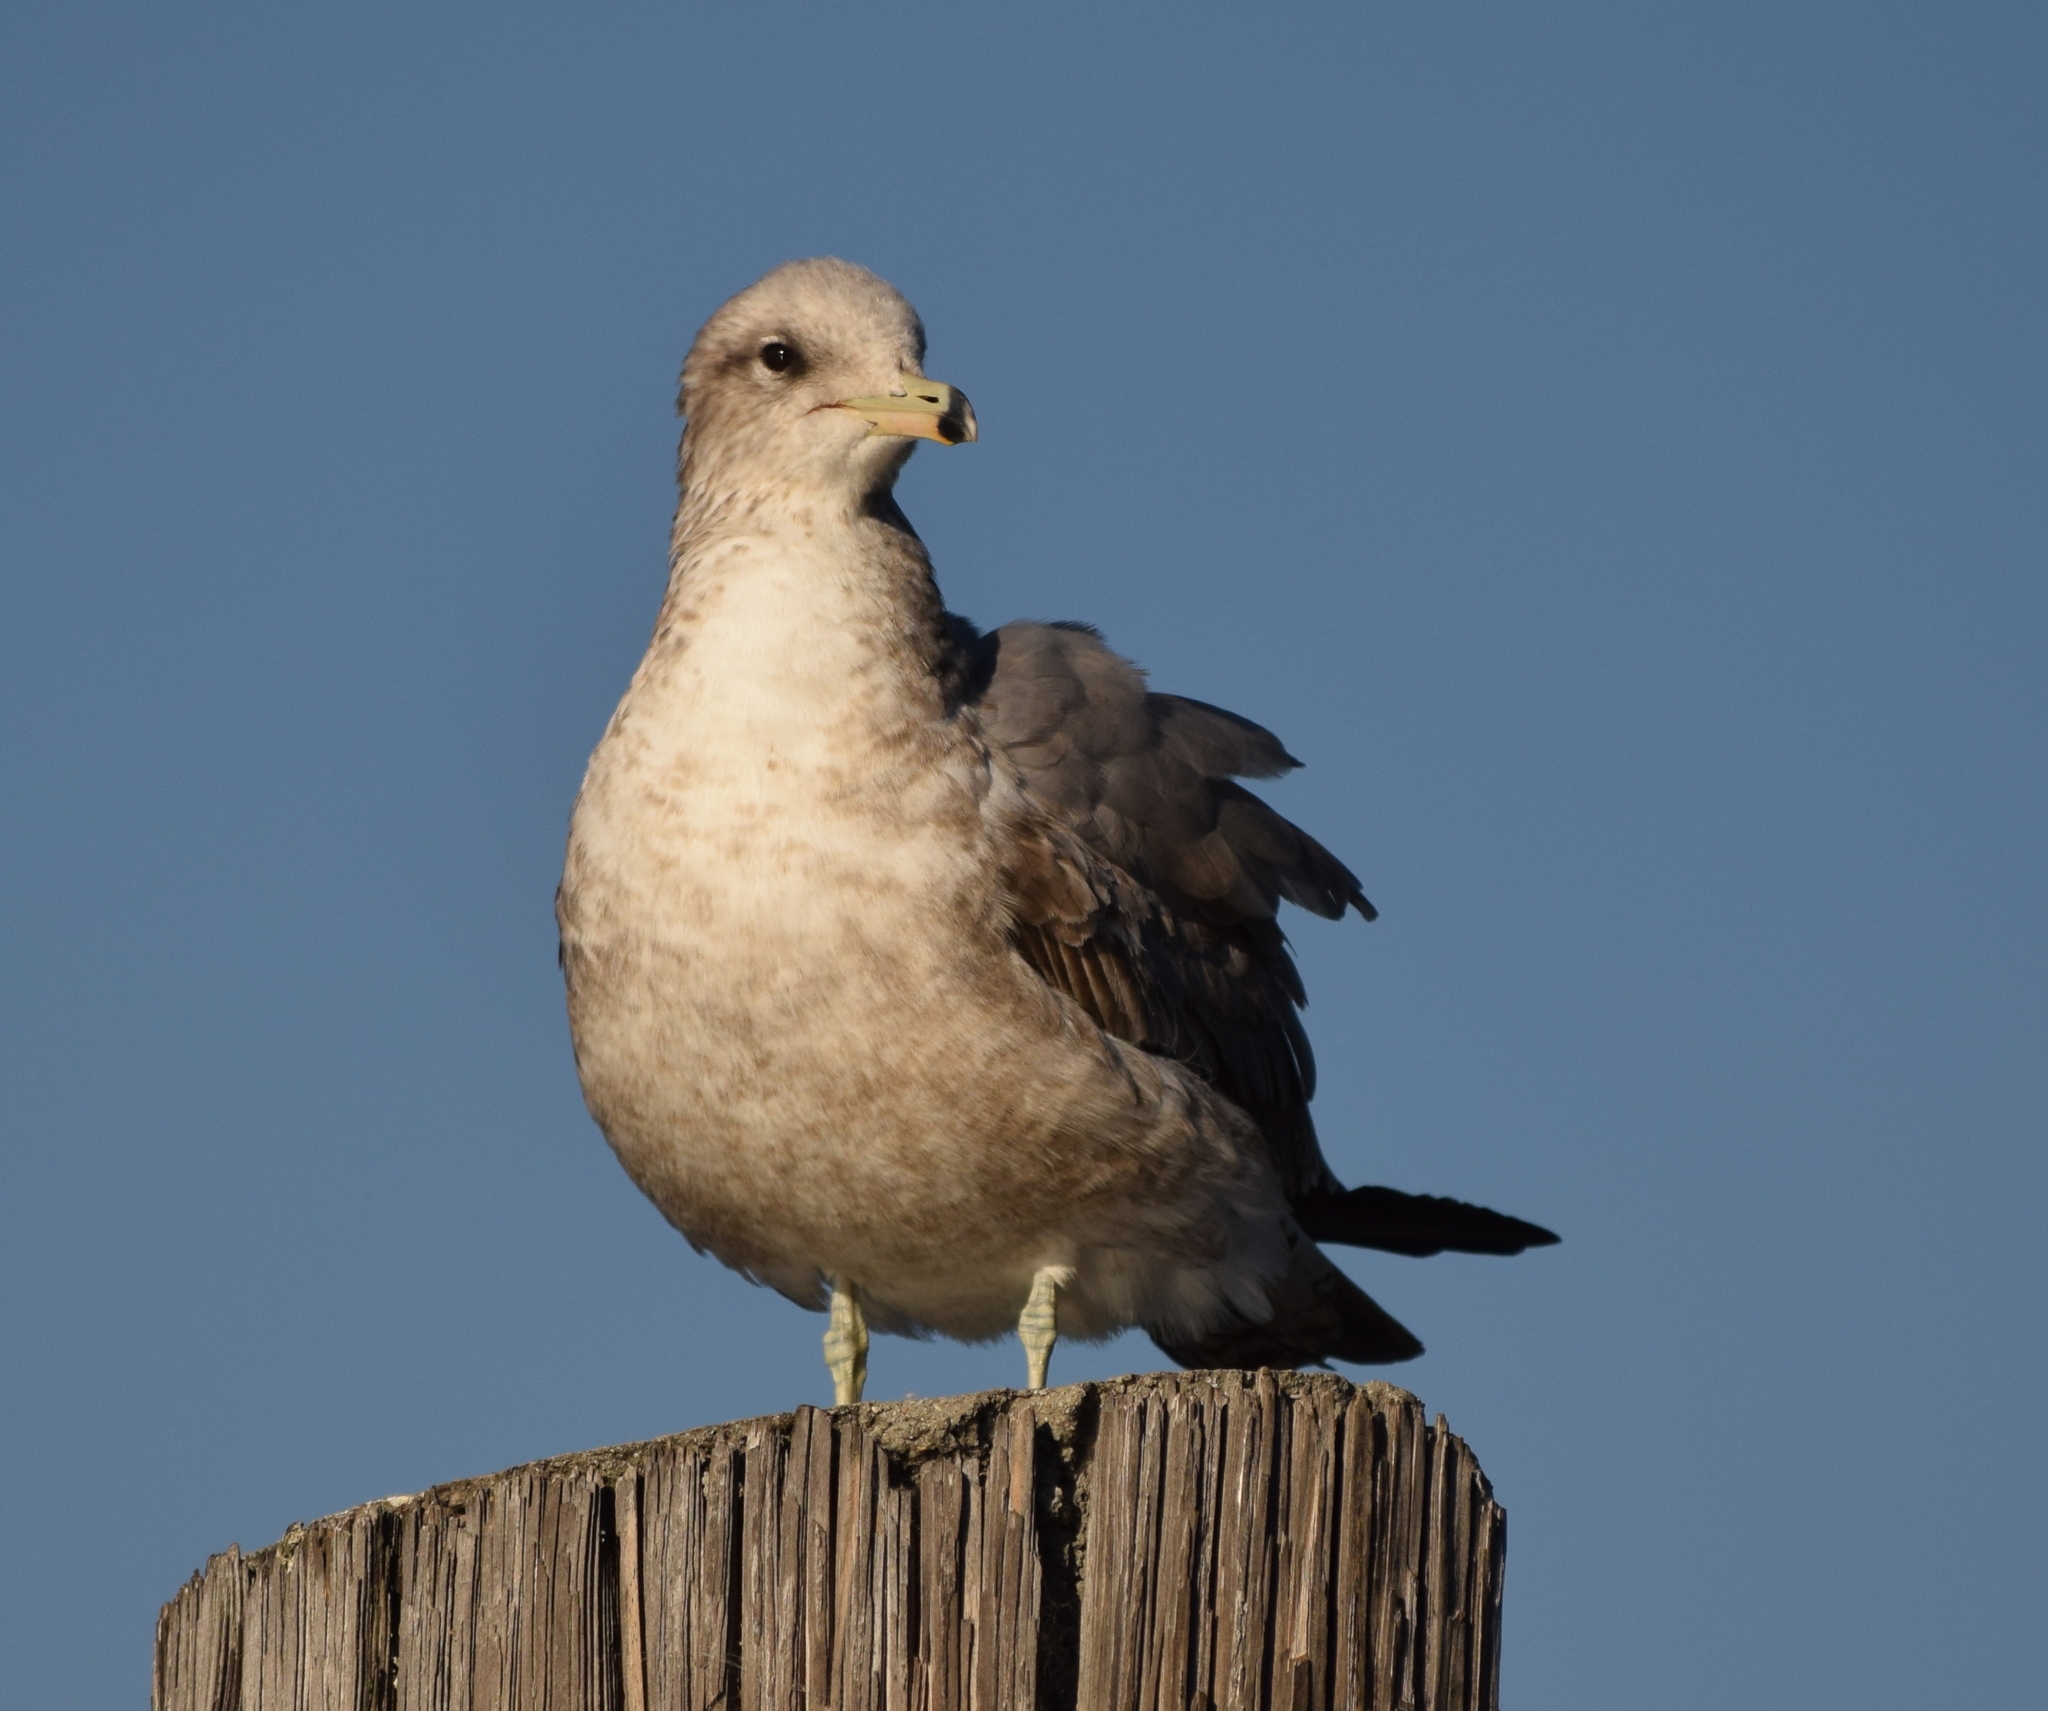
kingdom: Animalia
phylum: Chordata
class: Aves
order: Charadriiformes
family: Laridae
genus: Larus
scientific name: Larus californicus
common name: California gull
